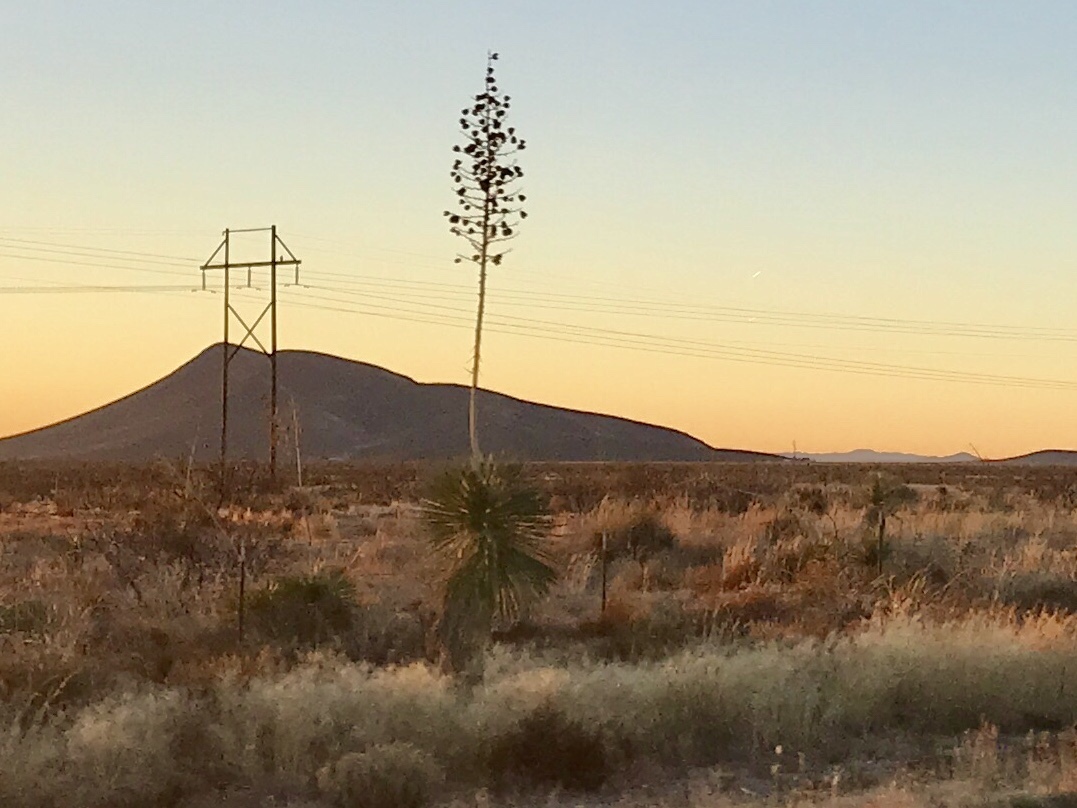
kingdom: Plantae
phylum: Tracheophyta
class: Liliopsida
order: Asparagales
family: Asparagaceae
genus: Yucca
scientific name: Yucca elata
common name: Palmella
